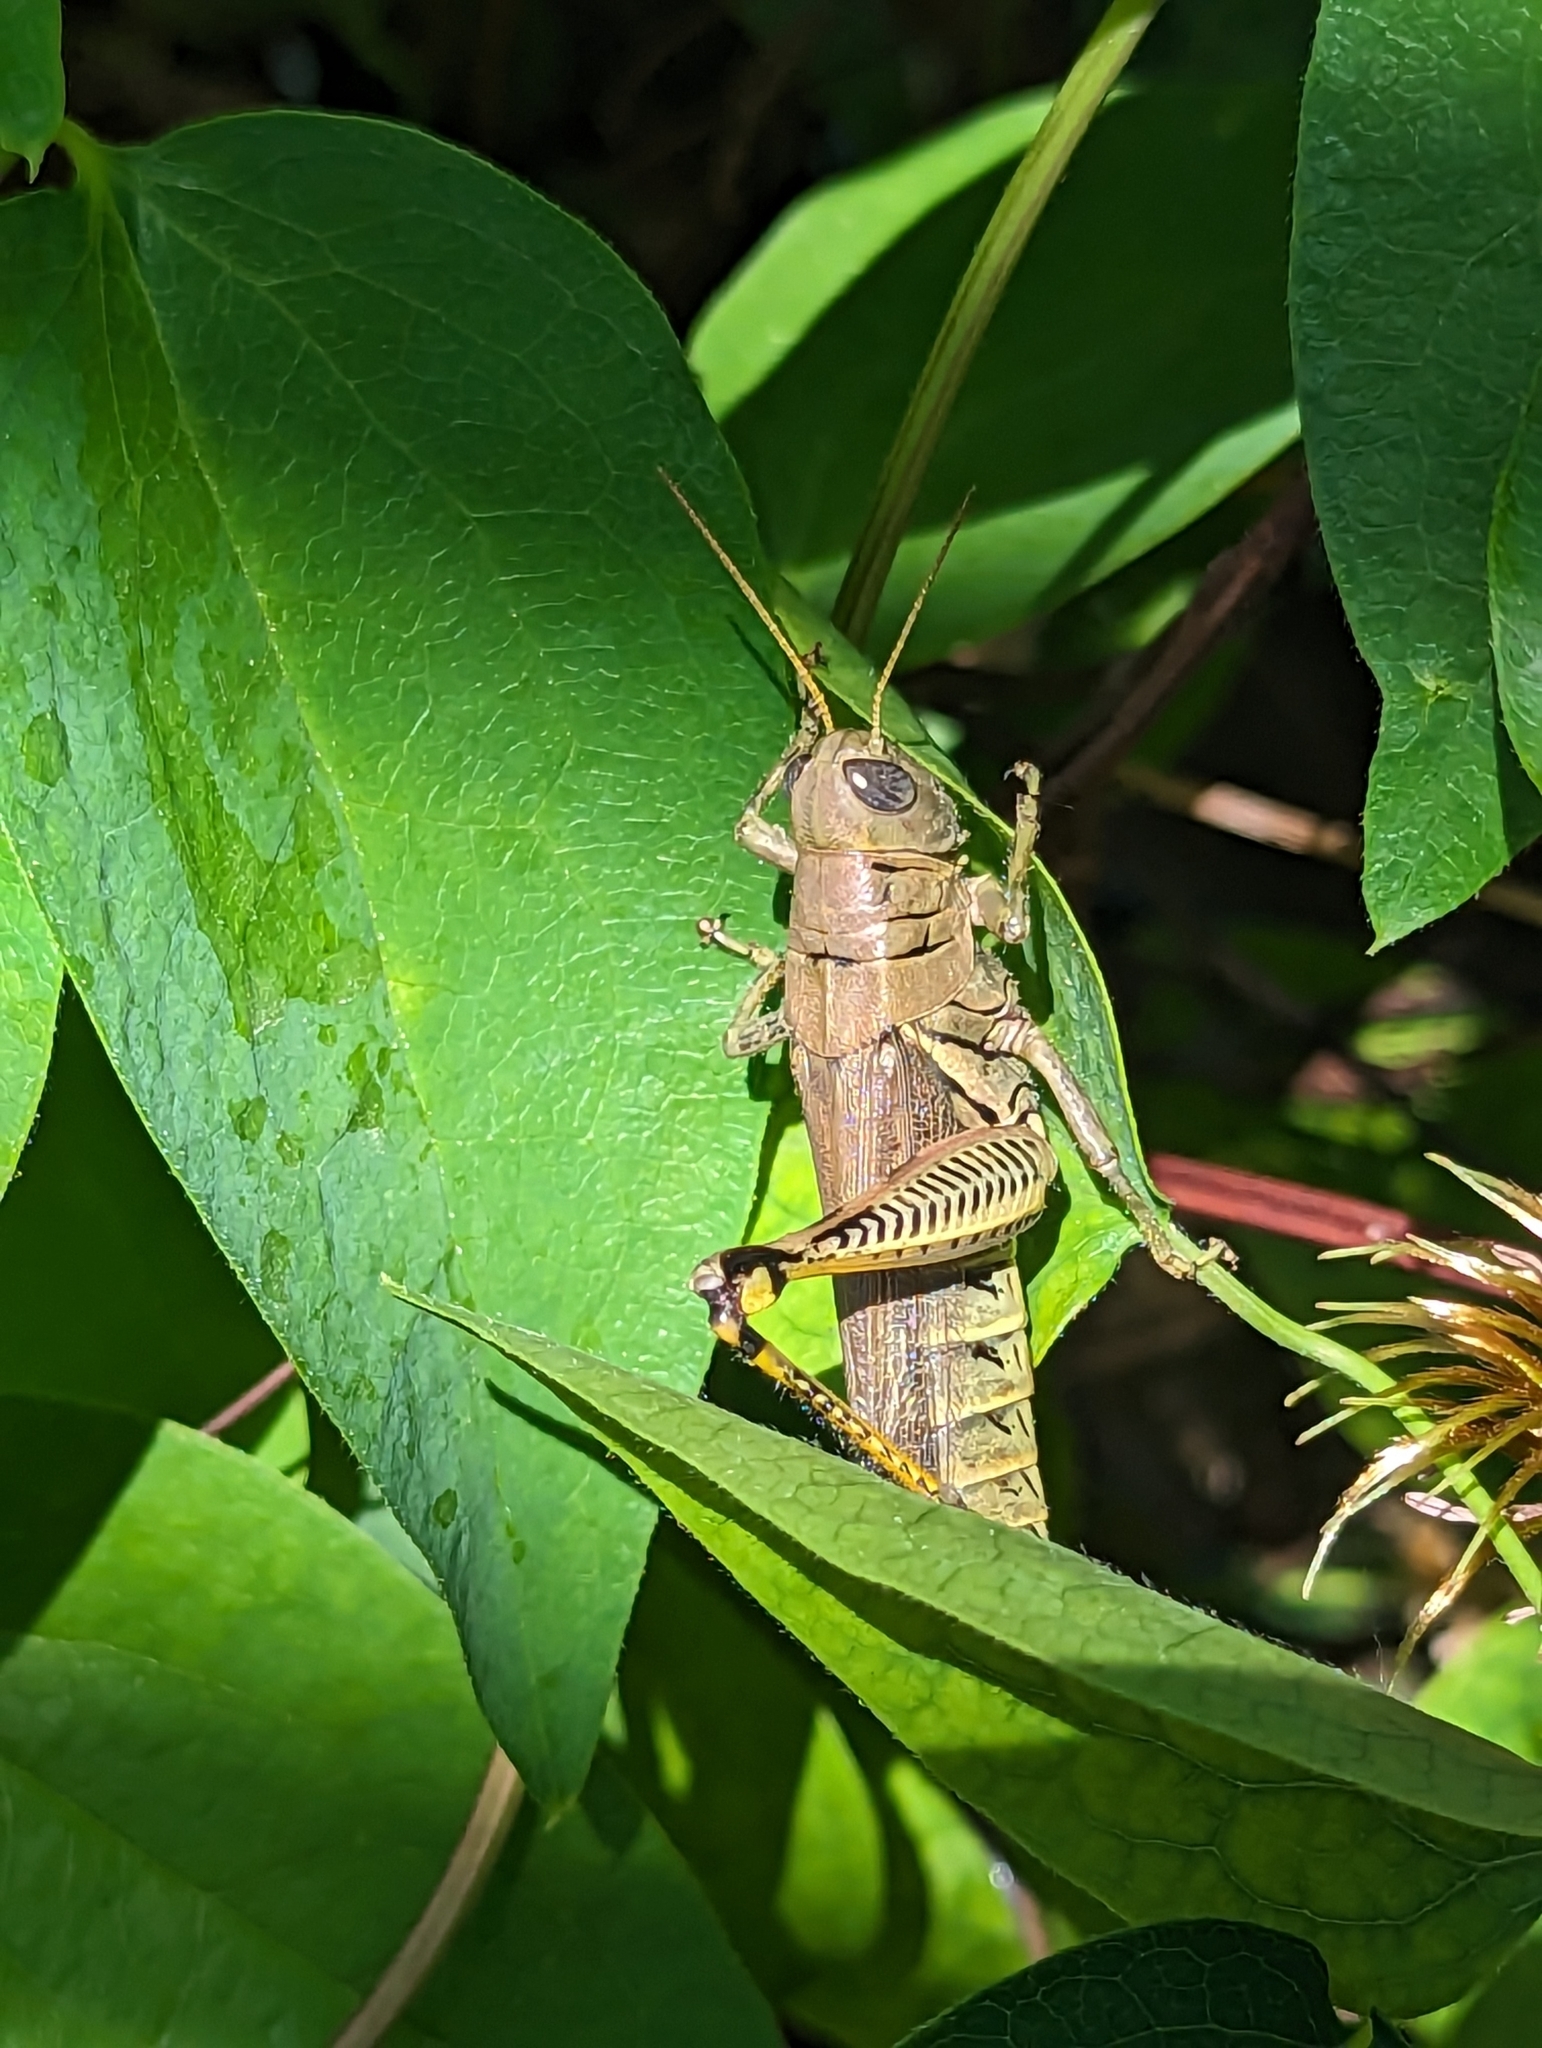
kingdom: Animalia
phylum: Arthropoda
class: Insecta
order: Orthoptera
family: Acrididae
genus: Melanoplus
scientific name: Melanoplus differentialis
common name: Differential grasshopper
